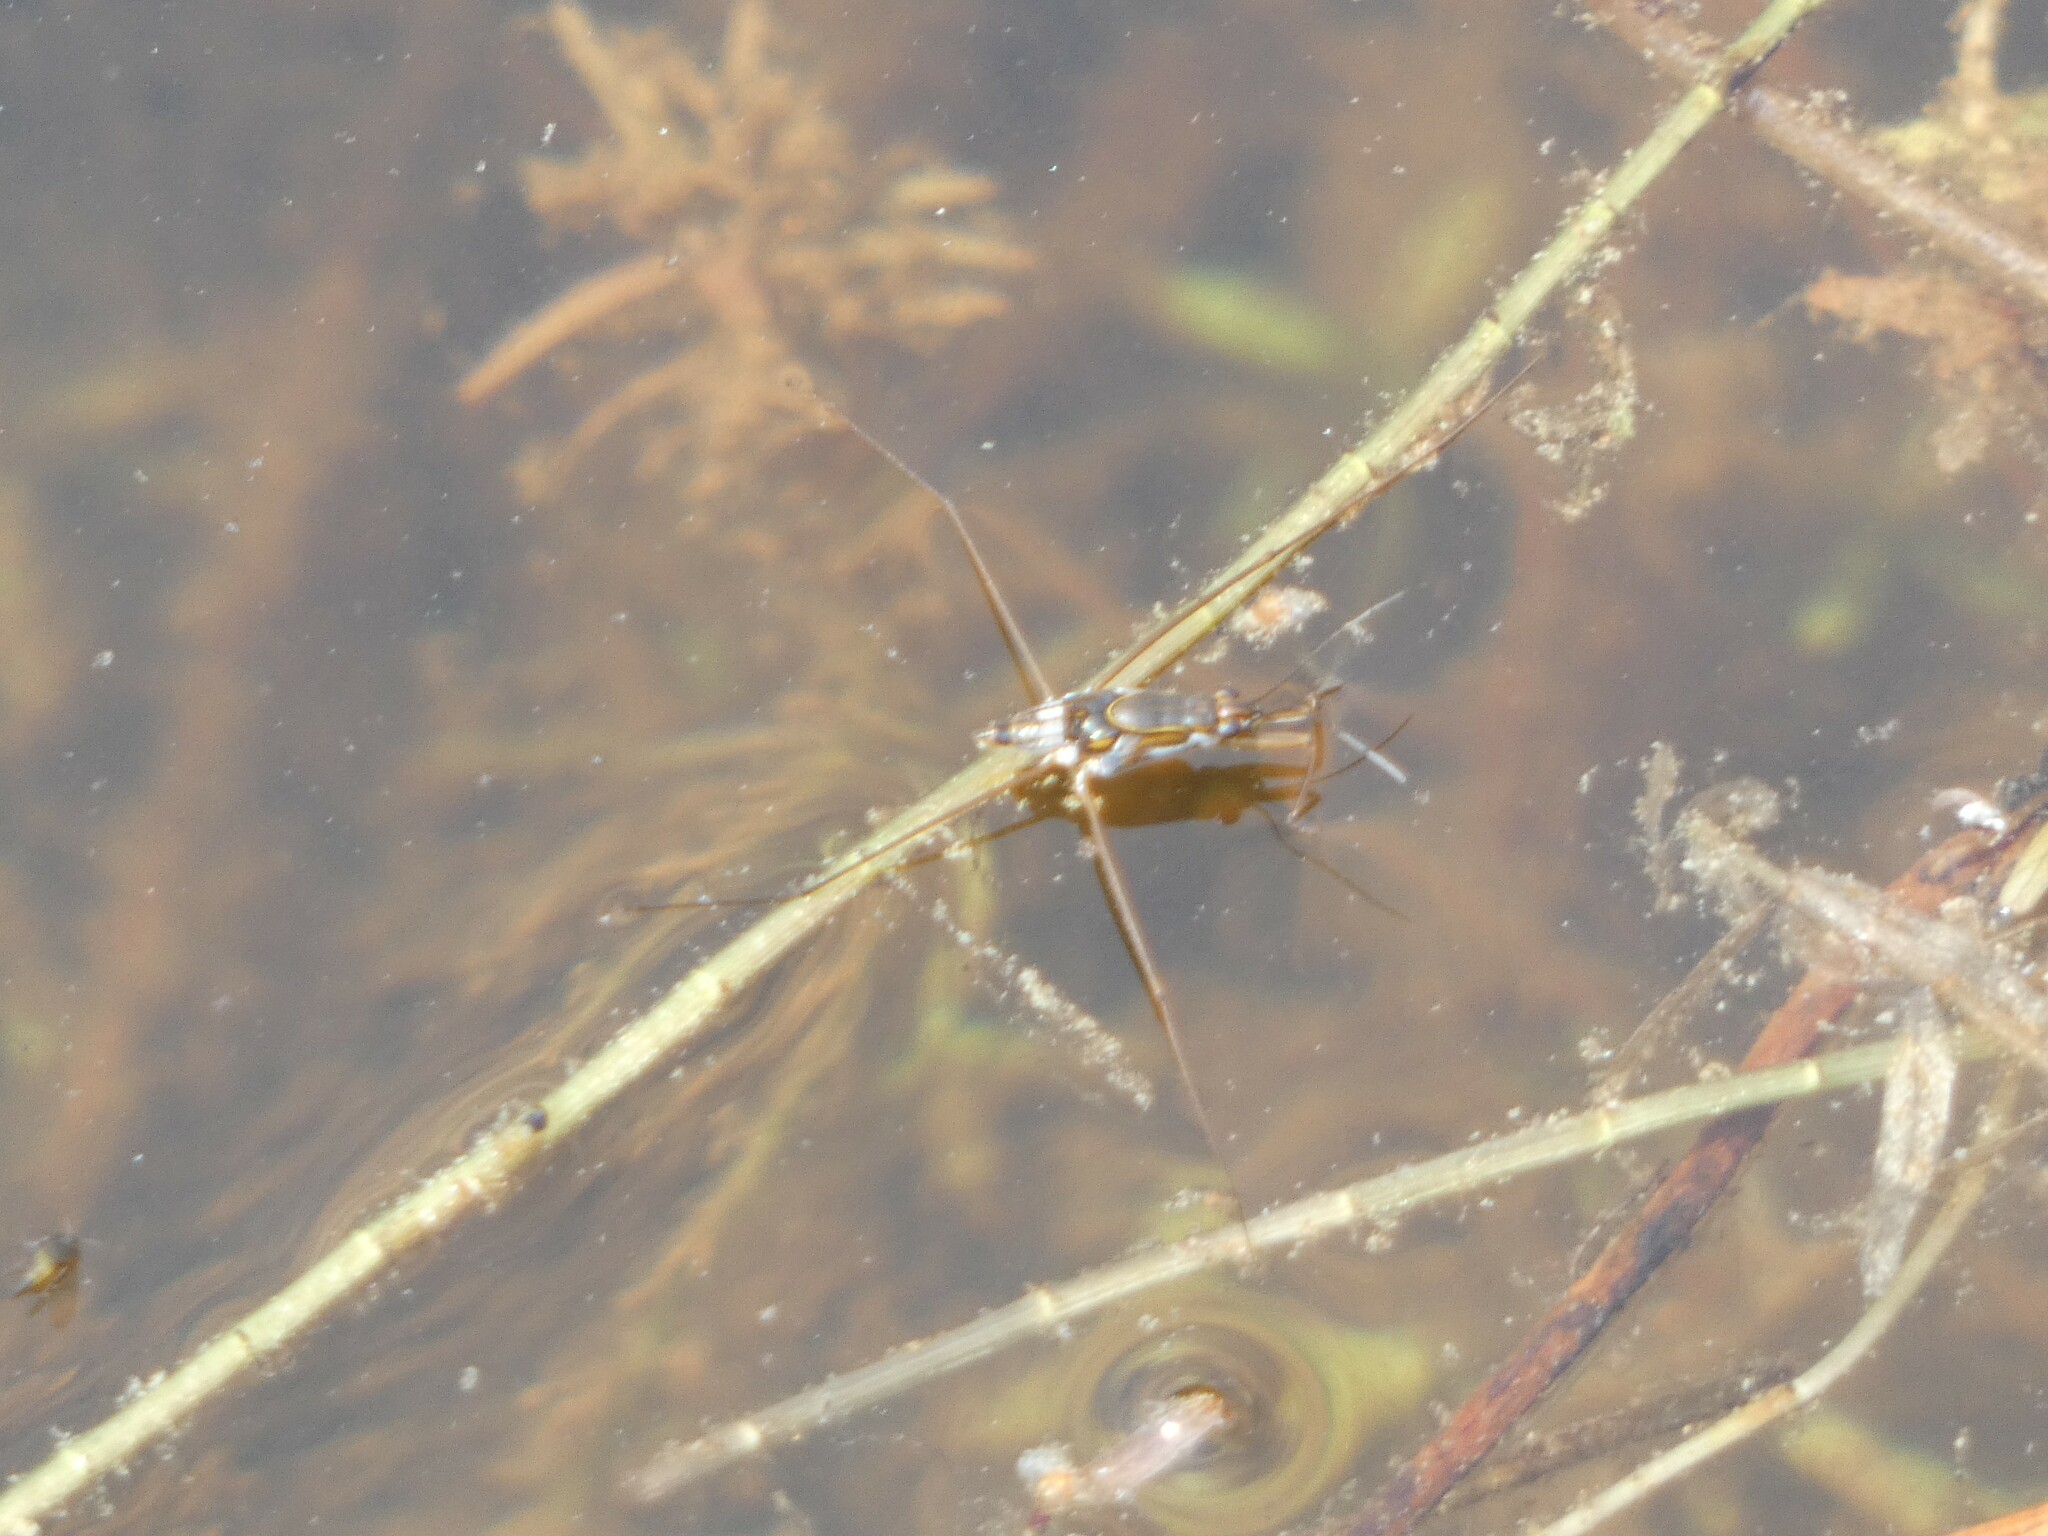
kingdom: Animalia
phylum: Arthropoda
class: Insecta
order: Hemiptera
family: Gerridae
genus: Limnogonus
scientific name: Limnogonus fossarum
